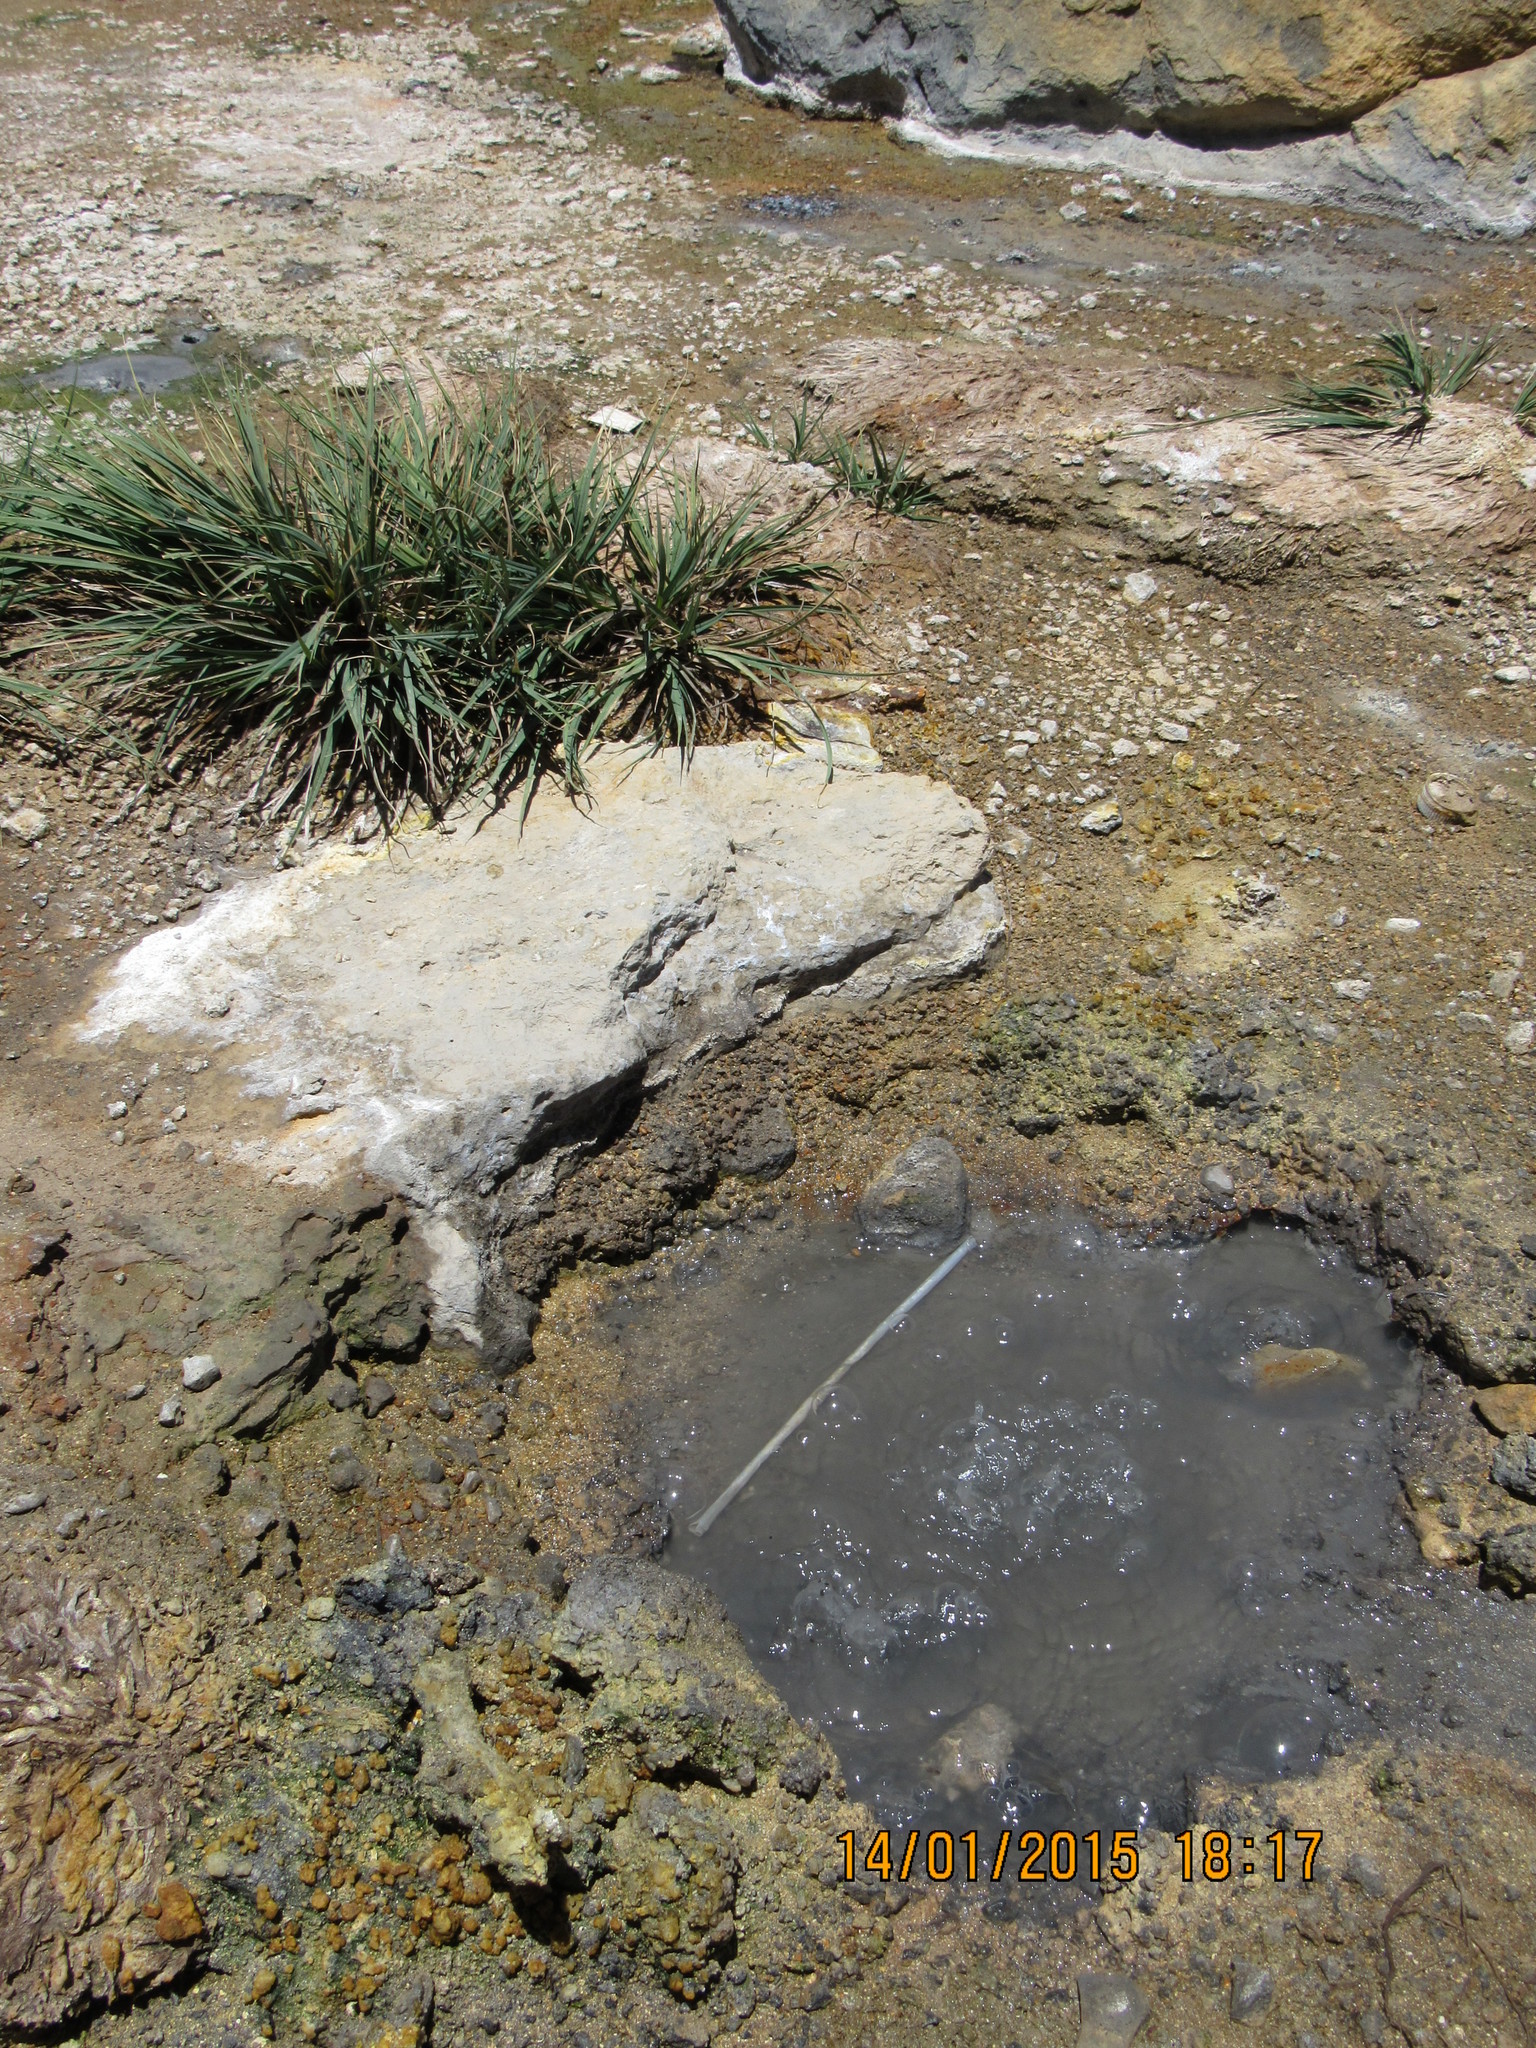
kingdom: Plantae
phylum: Tracheophyta
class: Liliopsida
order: Poales
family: Cyperaceae
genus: Carex
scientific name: Carex canescens
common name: White sedge
